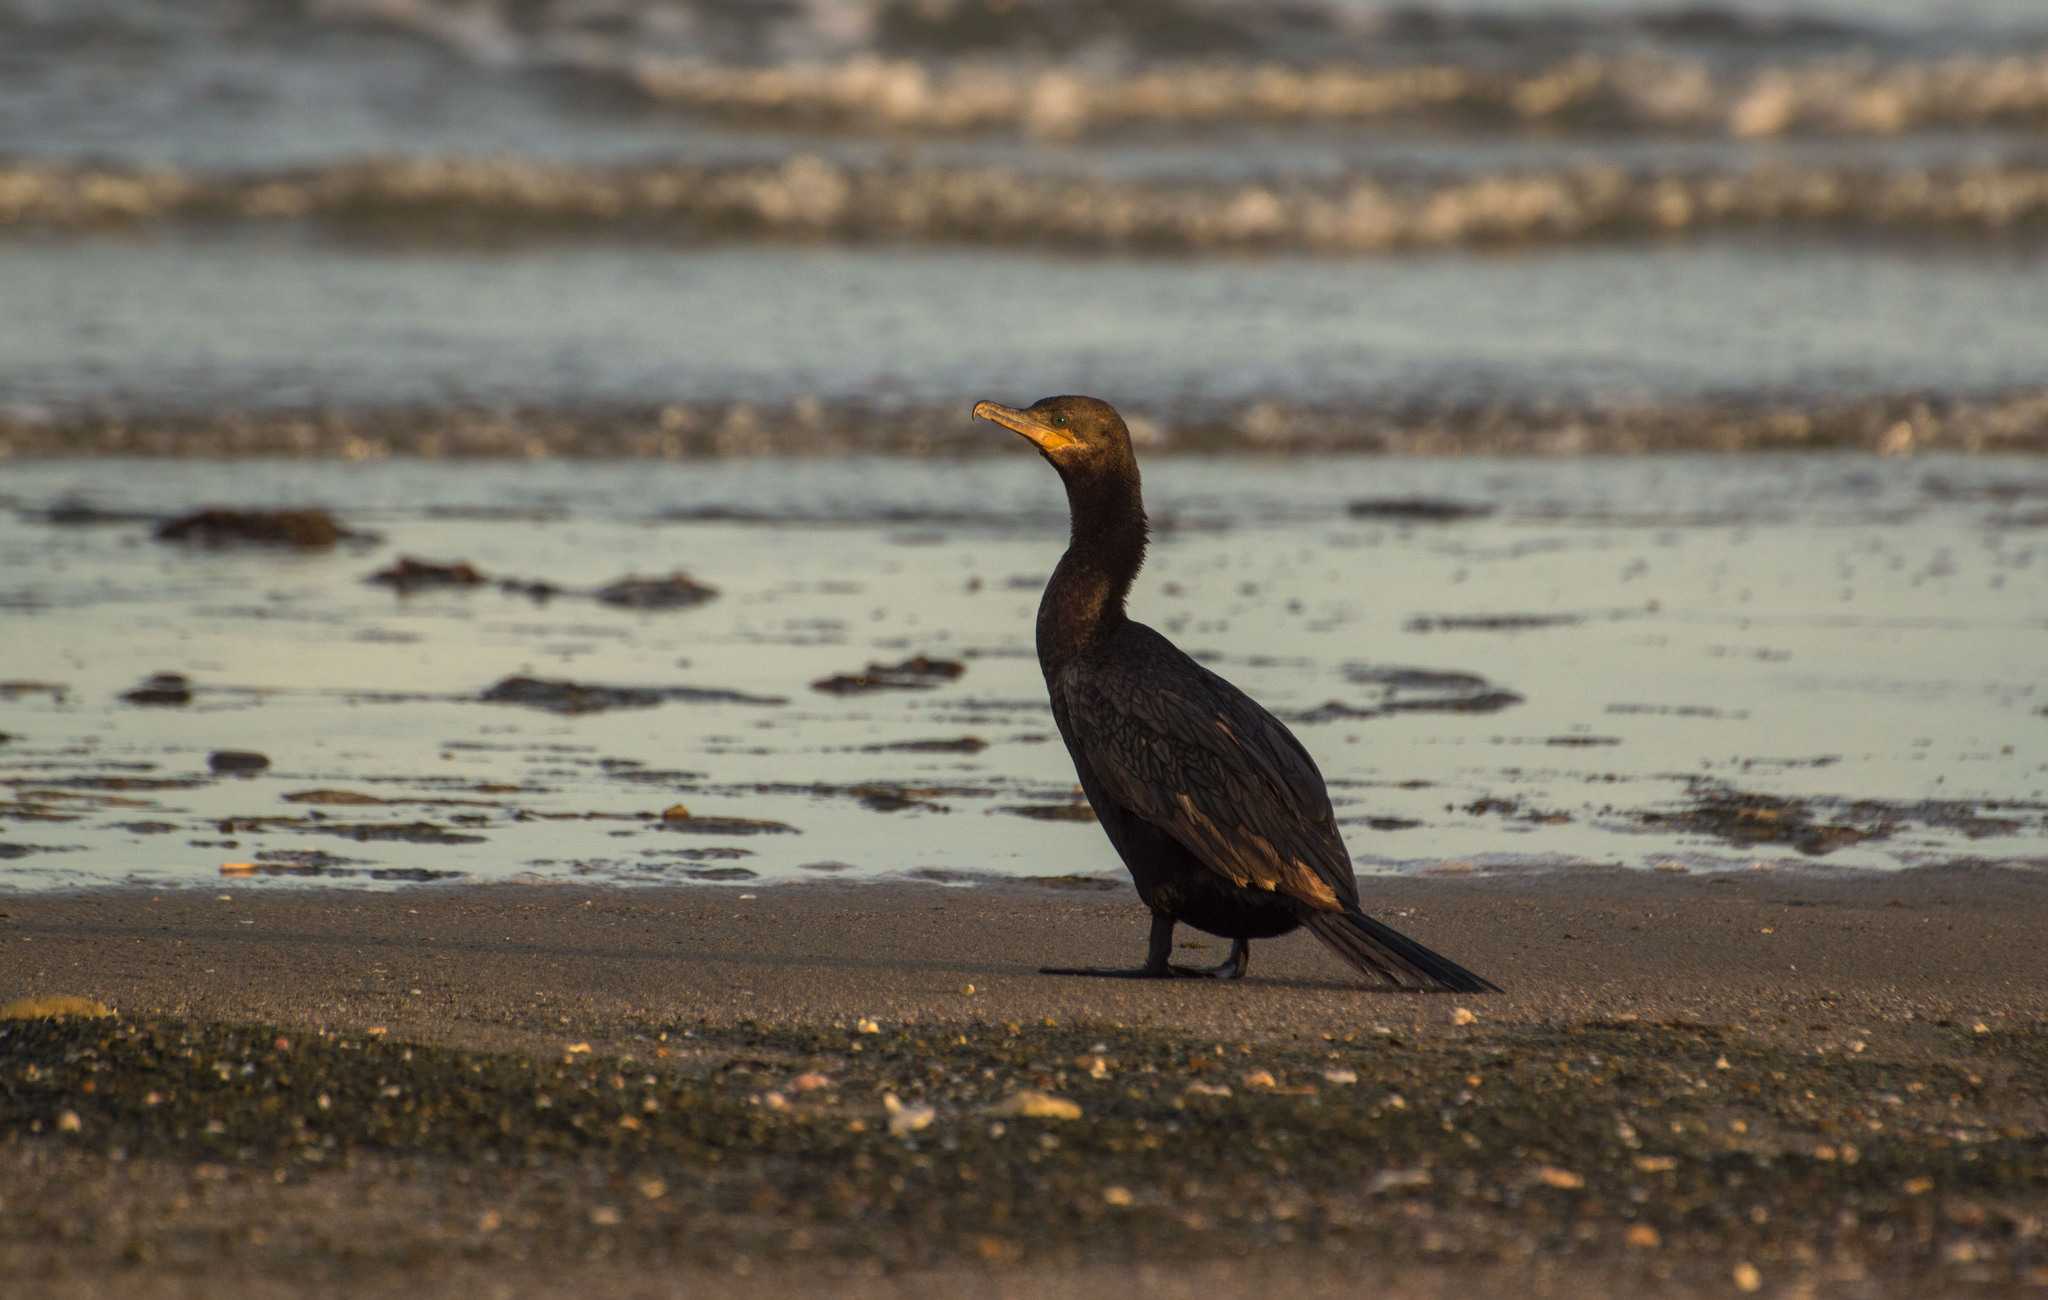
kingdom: Animalia
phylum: Chordata
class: Aves
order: Suliformes
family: Phalacrocoracidae
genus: Phalacrocorax
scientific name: Phalacrocorax brasilianus
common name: Neotropic cormorant
